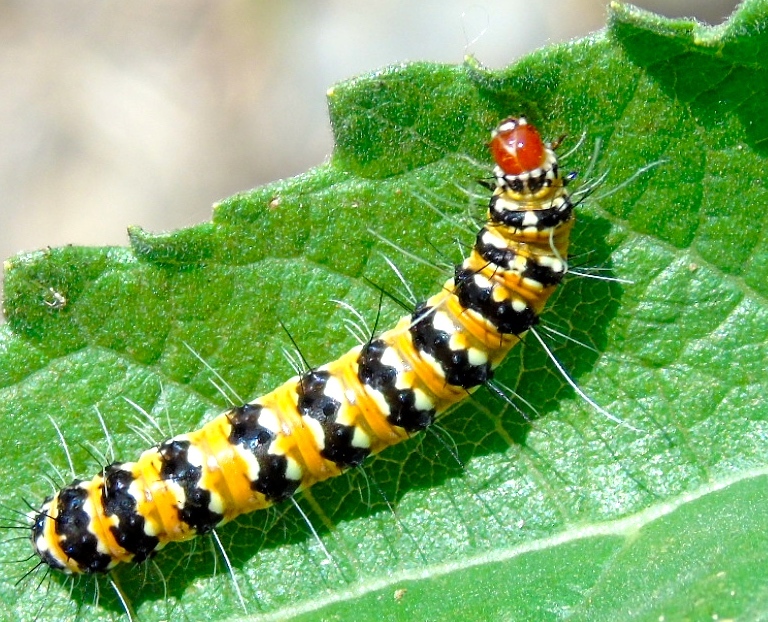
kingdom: Animalia
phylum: Arthropoda
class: Insecta
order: Lepidoptera
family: Erebidae
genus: Utetheisa
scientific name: Utetheisa ornatrix
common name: Beautiful utetheisa
